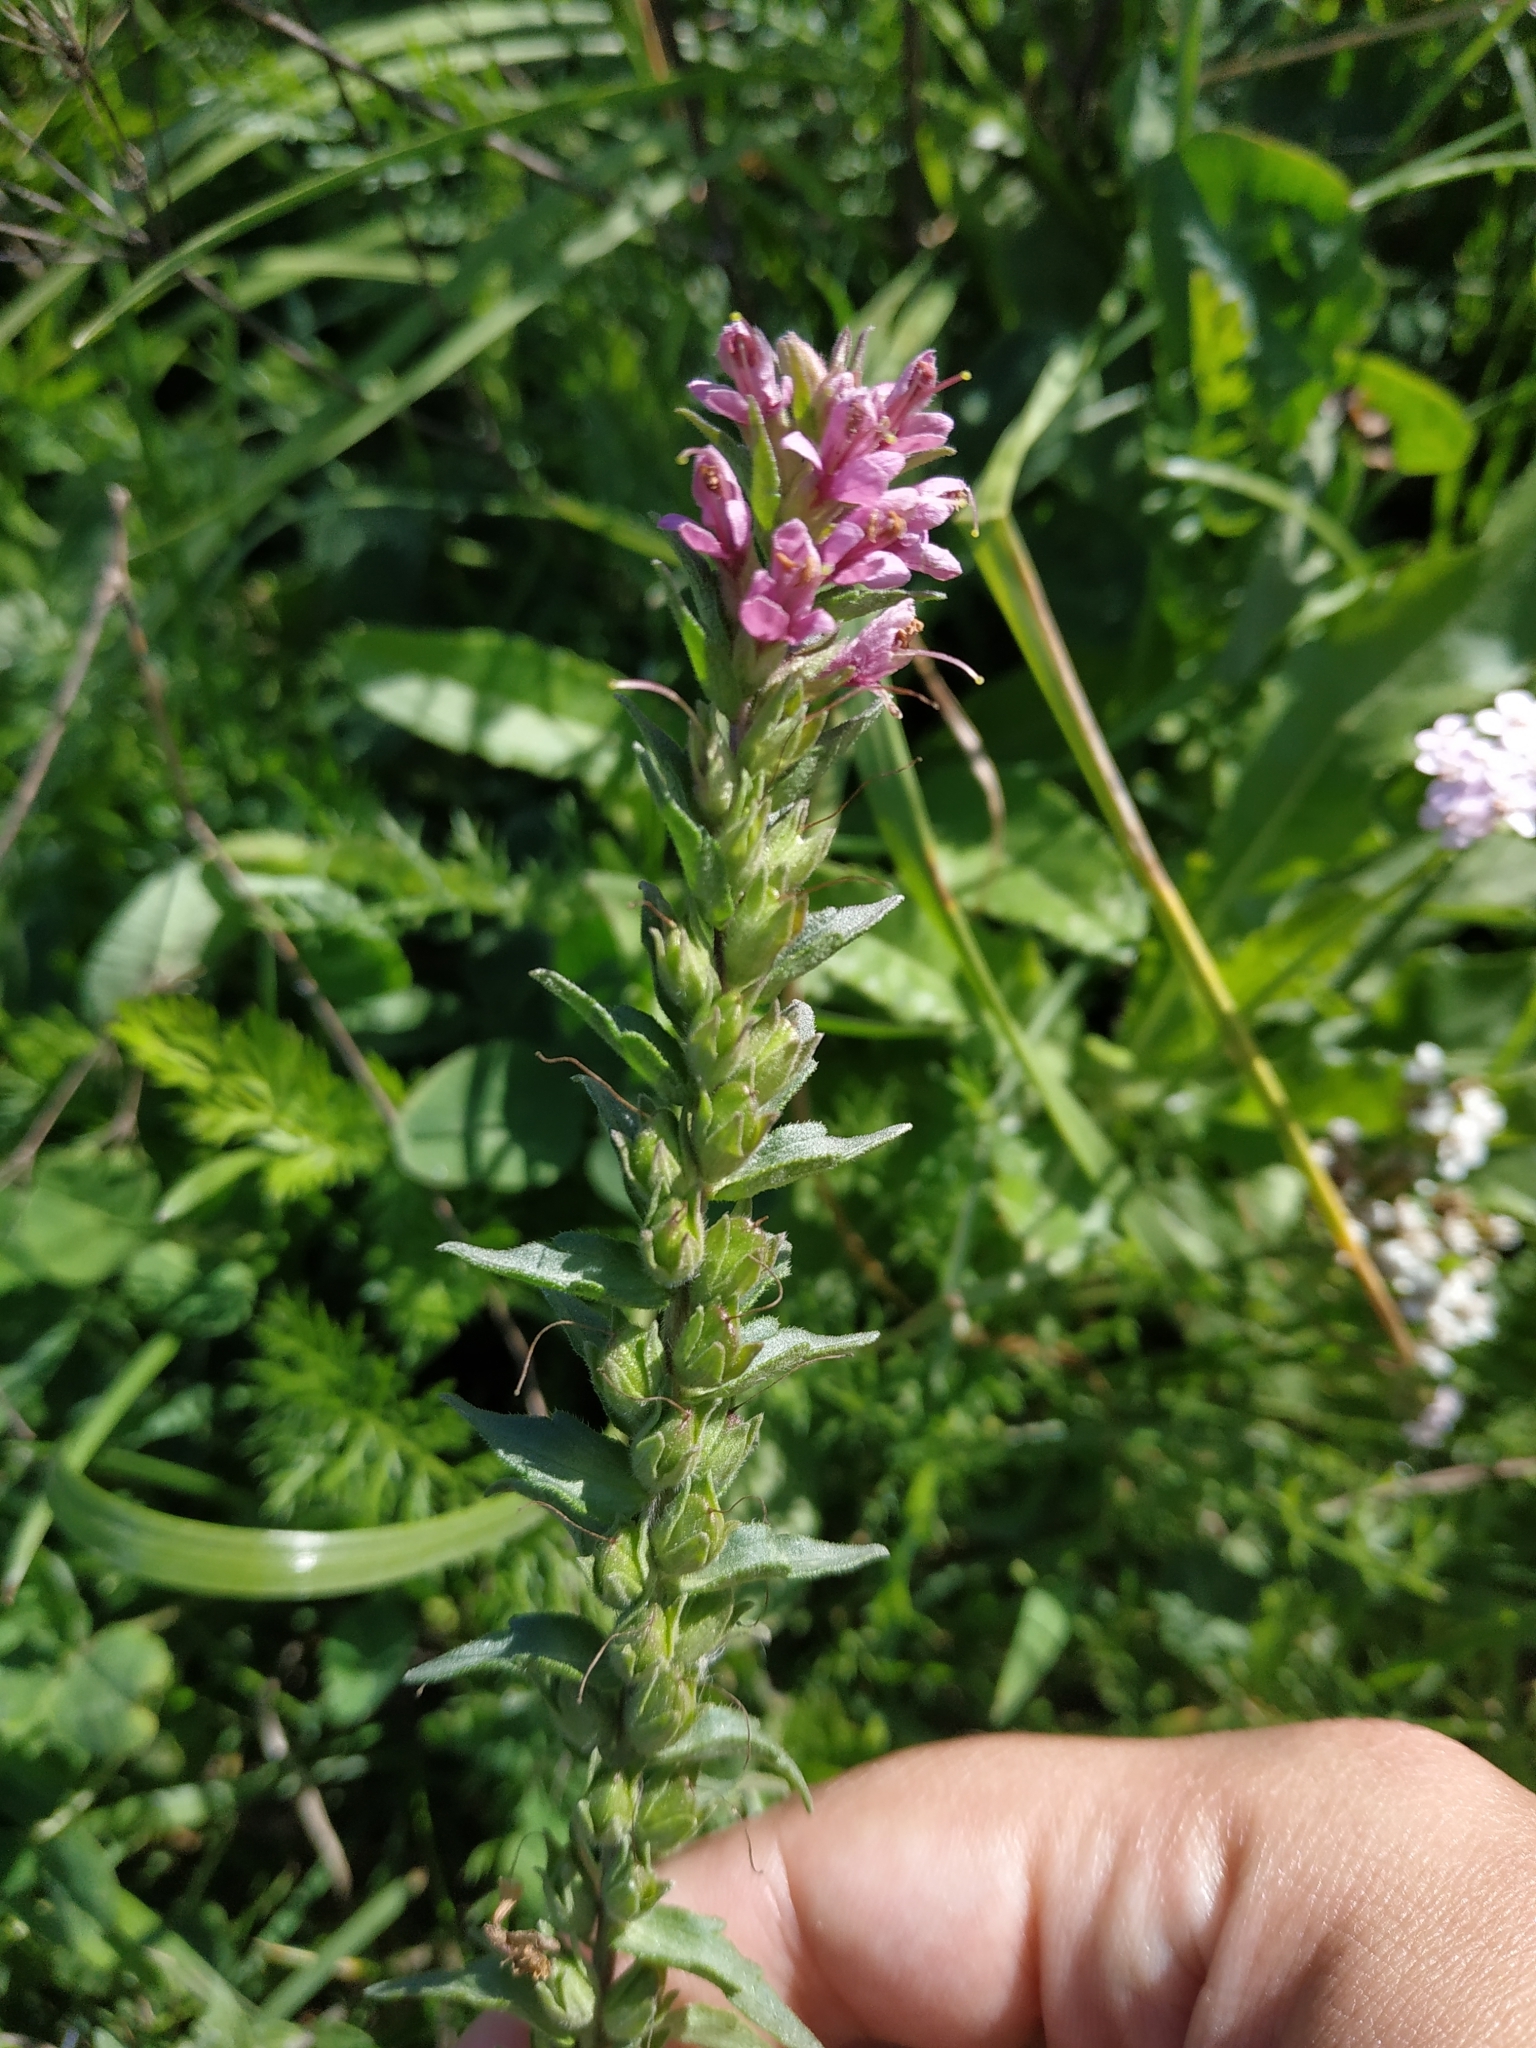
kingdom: Plantae
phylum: Tracheophyta
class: Magnoliopsida
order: Lamiales
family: Orobanchaceae
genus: Odontites
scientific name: Odontites vulgaris
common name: Broomrape
